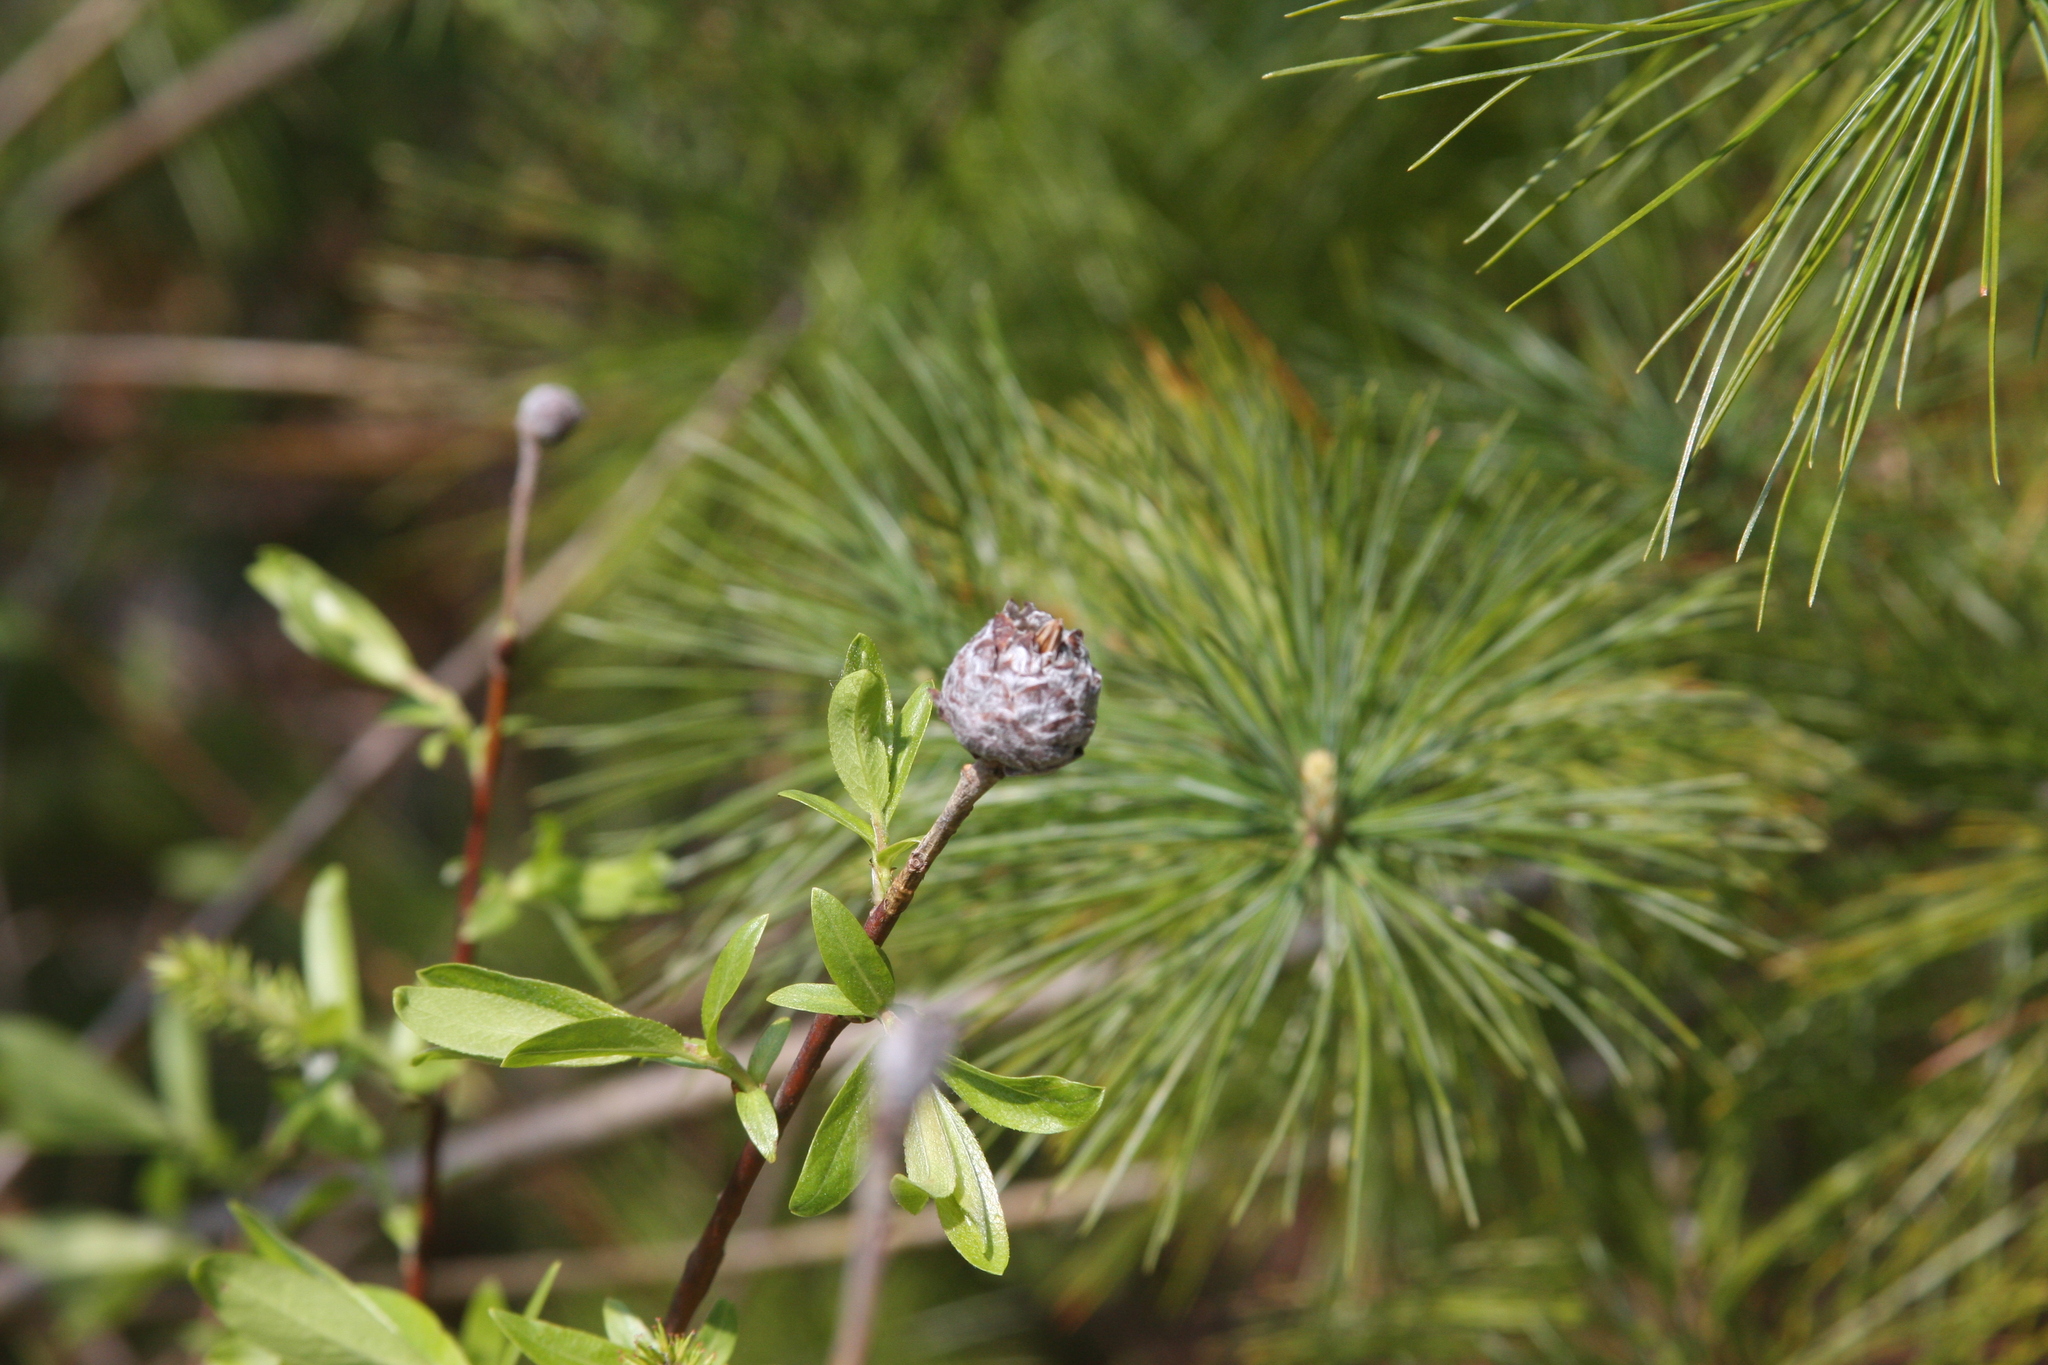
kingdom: Animalia
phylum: Arthropoda
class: Insecta
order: Diptera
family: Cecidomyiidae
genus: Rabdophaga
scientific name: Rabdophaga strobiloides
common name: Willow pinecone gall midge
